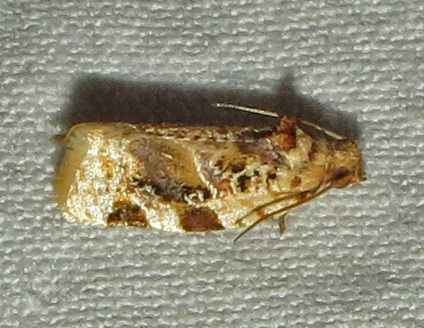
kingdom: Animalia
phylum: Arthropoda
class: Insecta
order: Lepidoptera
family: Tortricidae
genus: Argyrotaenia
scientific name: Argyrotaenia velutinana
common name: Red-banded leafroller moth
